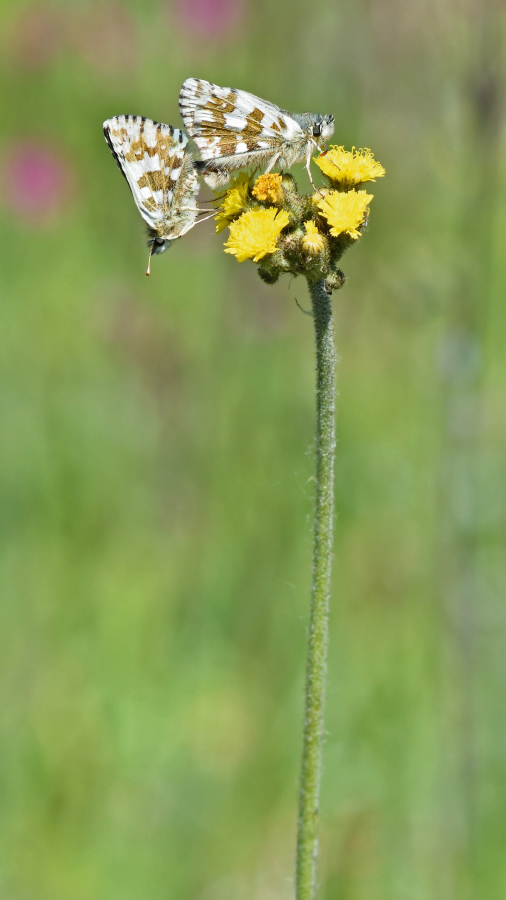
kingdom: Animalia
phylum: Arthropoda
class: Insecta
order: Lepidoptera
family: Hesperiidae
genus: Pyrgus
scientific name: Pyrgus alveus
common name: Large grizzled skipper
